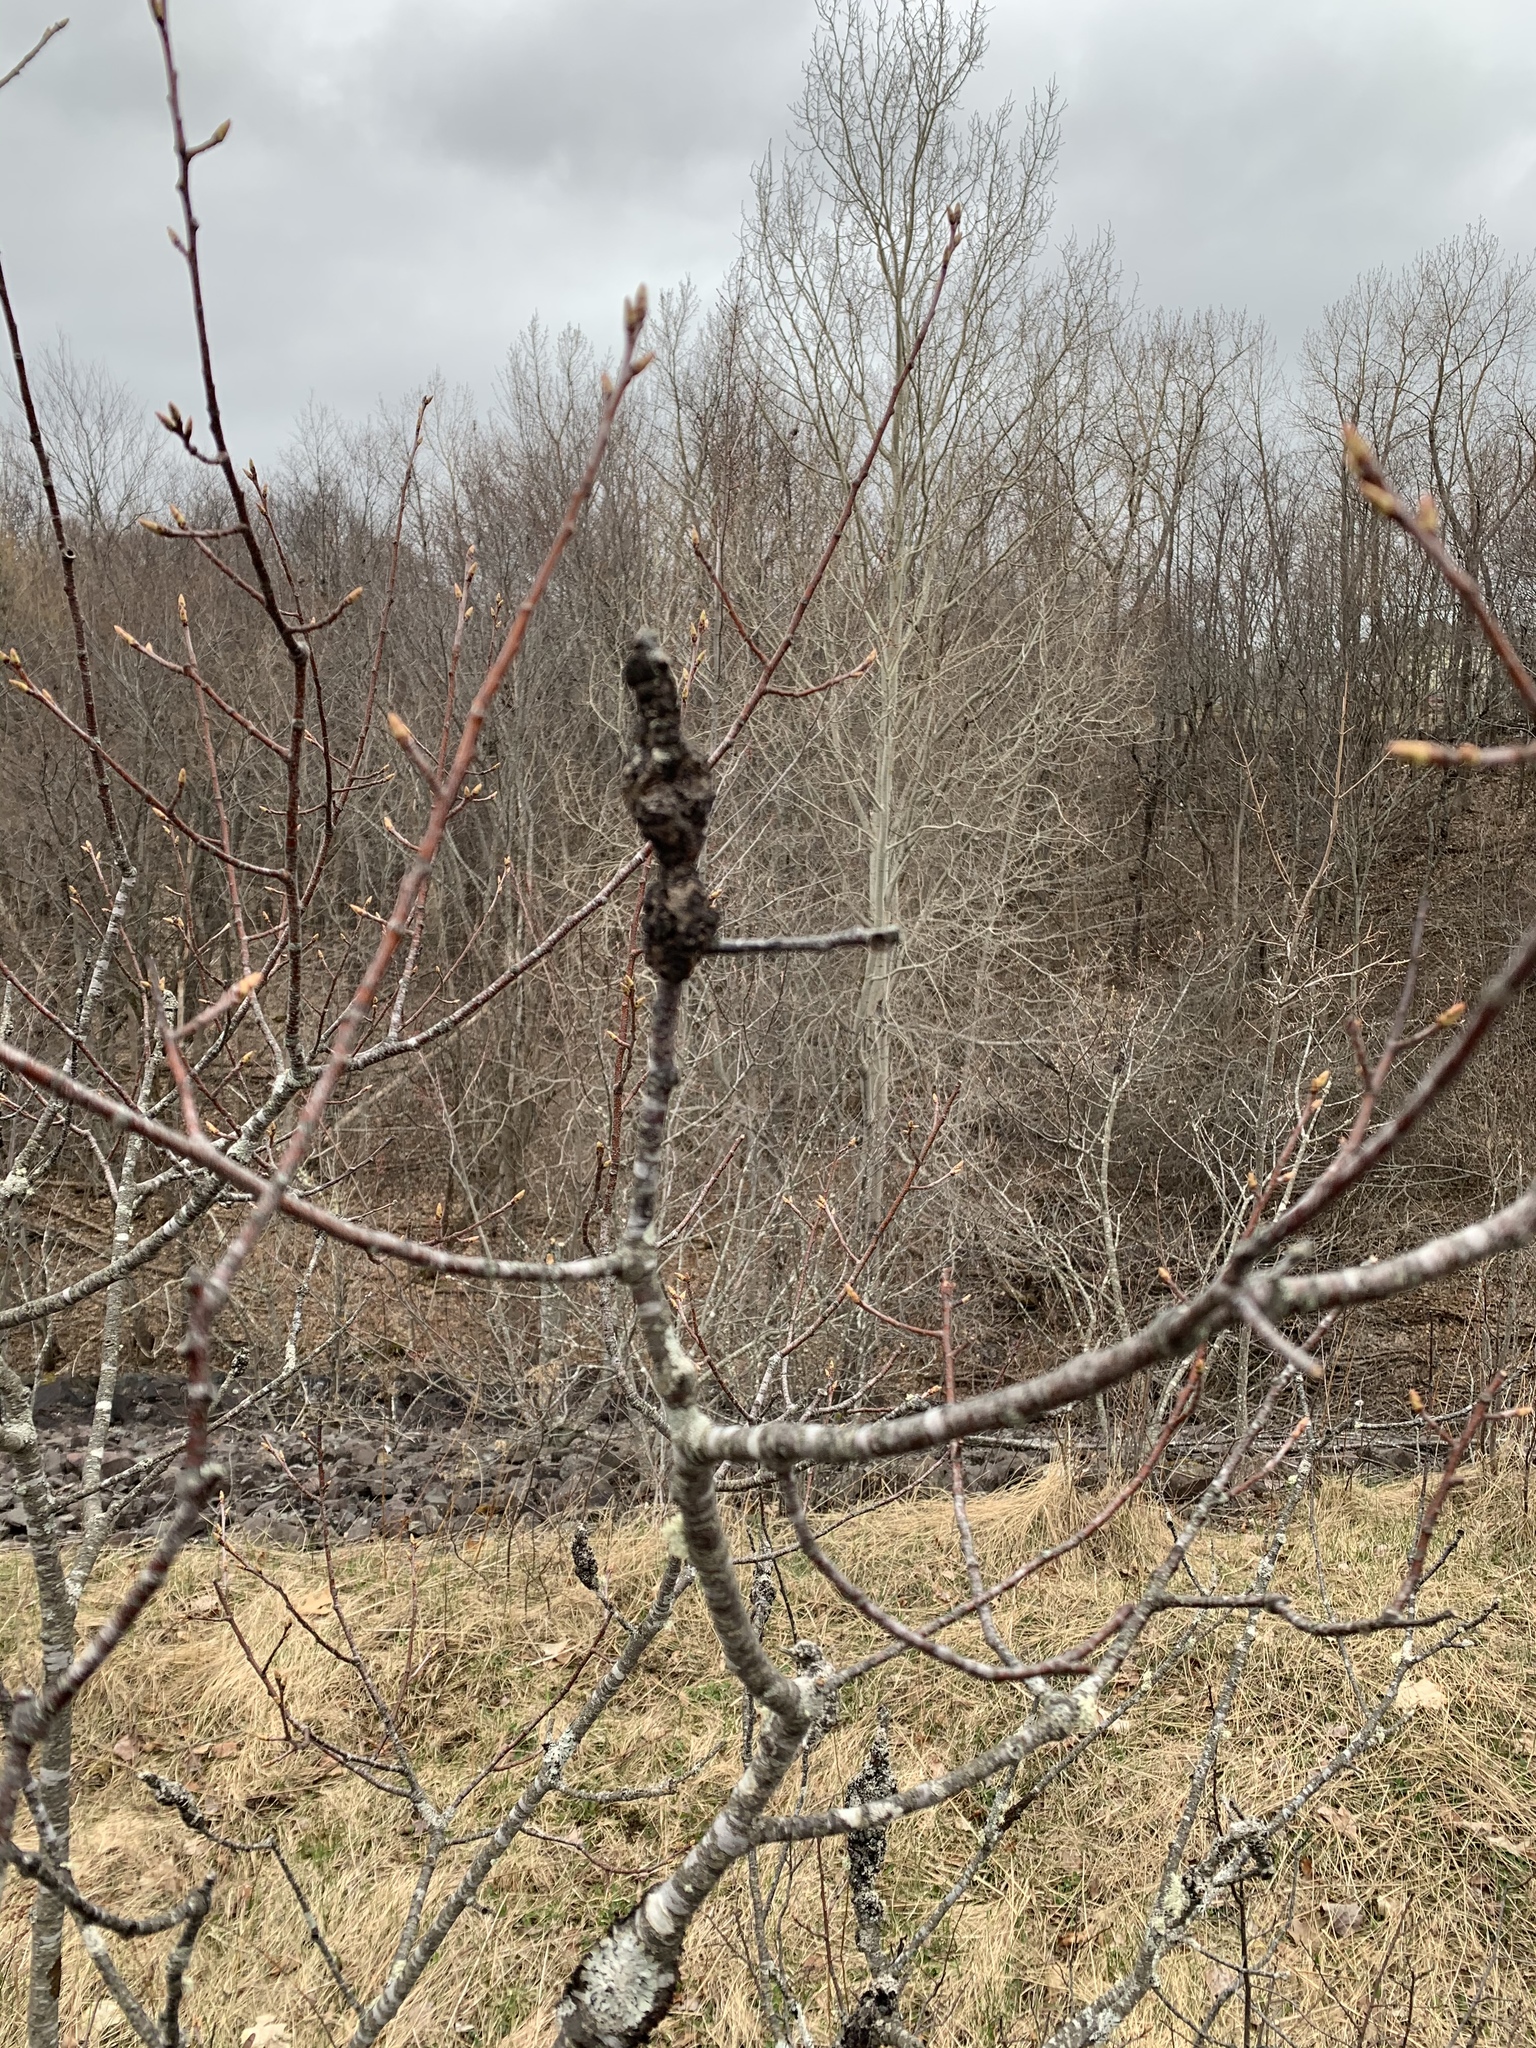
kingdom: Fungi
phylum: Ascomycota
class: Dothideomycetes
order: Venturiales
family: Venturiaceae
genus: Apiosporina
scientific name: Apiosporina morbosa
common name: Black knot
